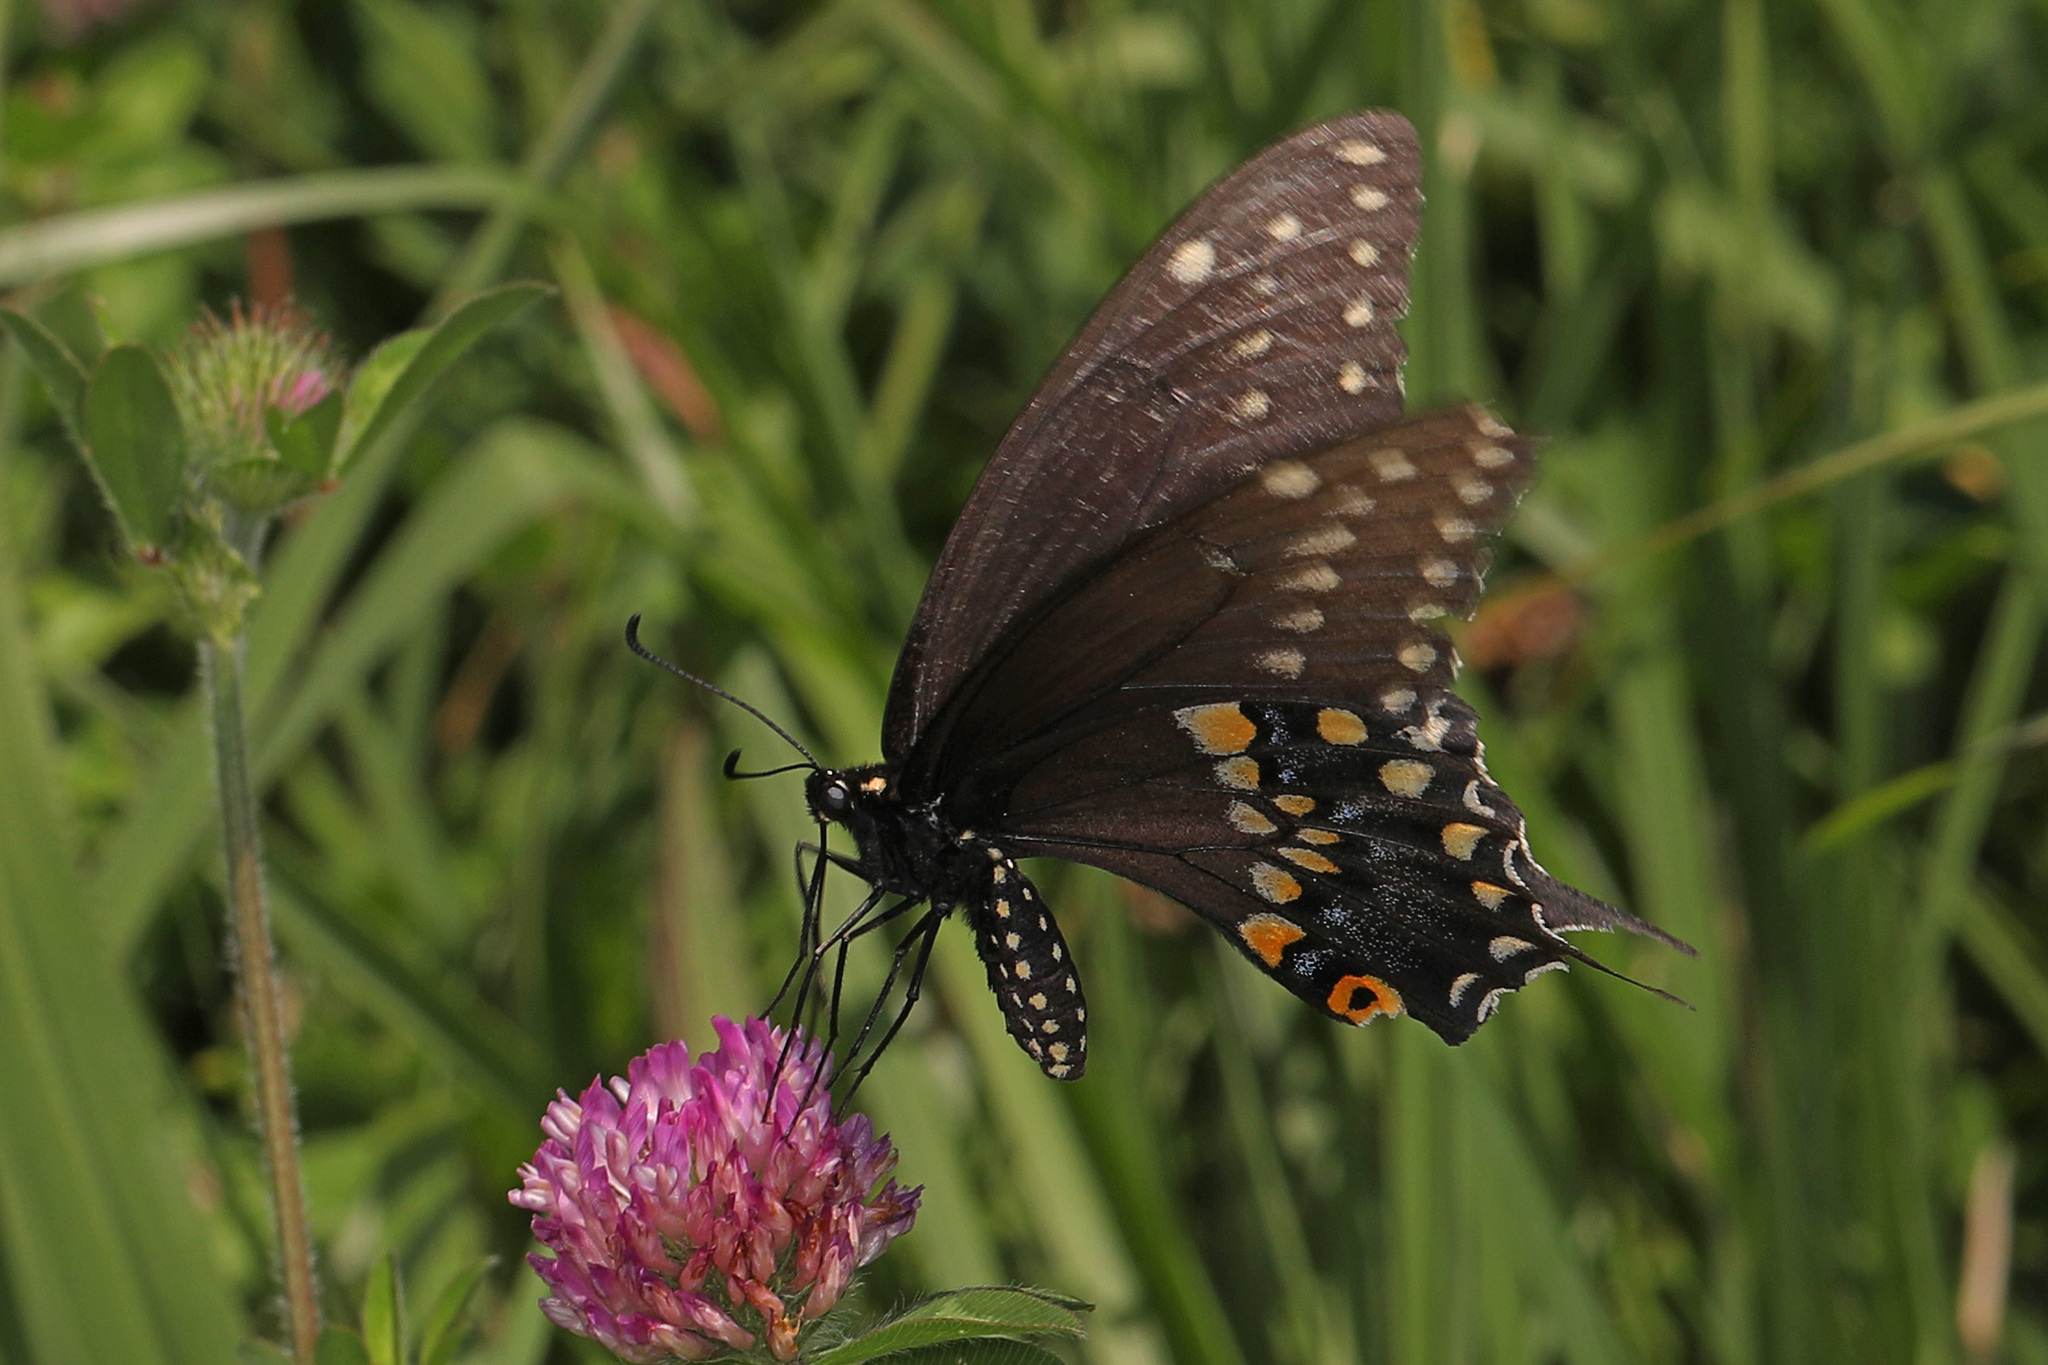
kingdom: Animalia
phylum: Arthropoda
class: Insecta
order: Lepidoptera
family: Papilionidae
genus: Papilio
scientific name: Papilio polyxenes
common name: Black swallowtail
